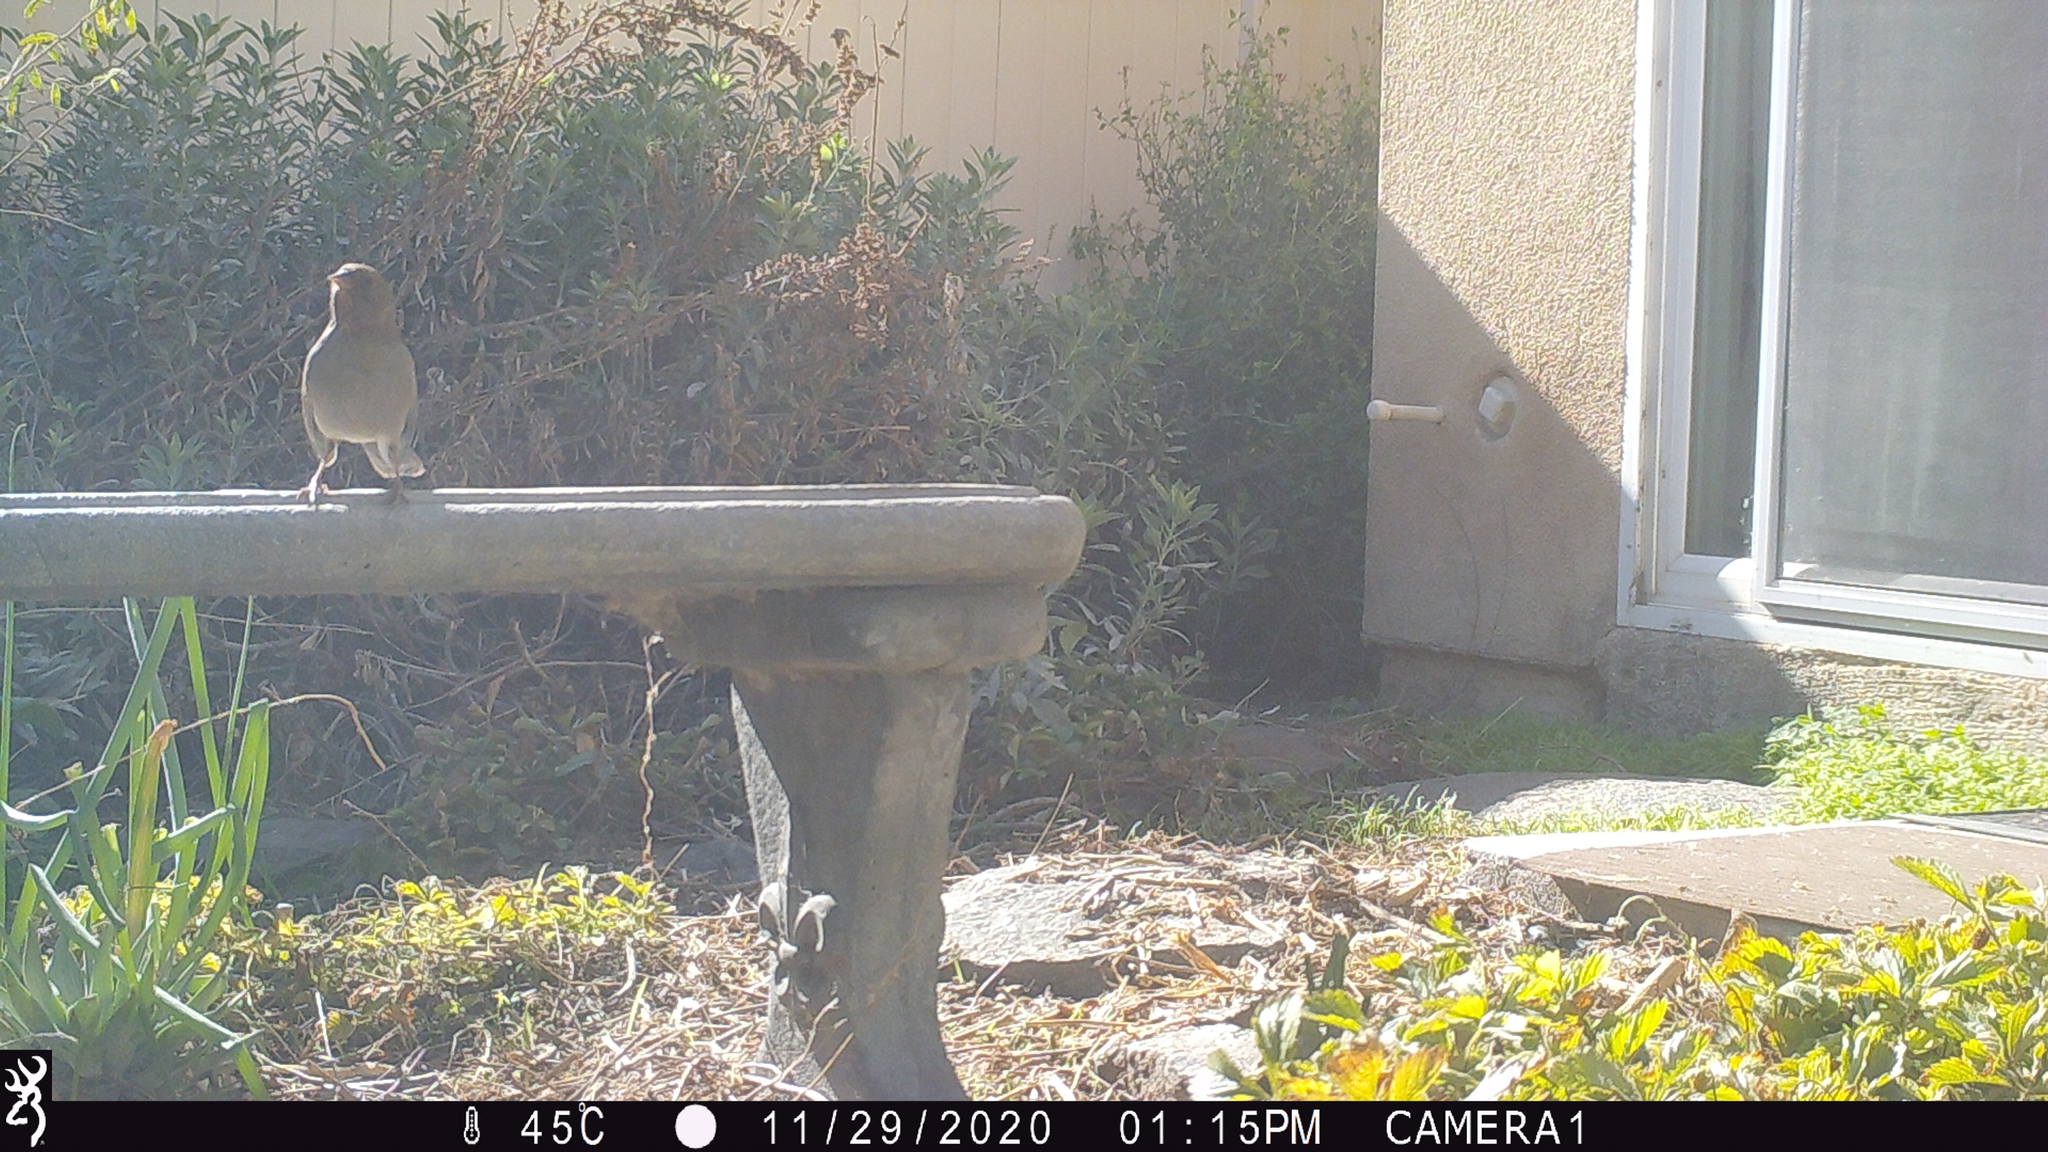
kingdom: Animalia
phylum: Chordata
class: Aves
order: Passeriformes
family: Passerellidae
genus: Melozone
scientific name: Melozone crissalis
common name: California towhee
